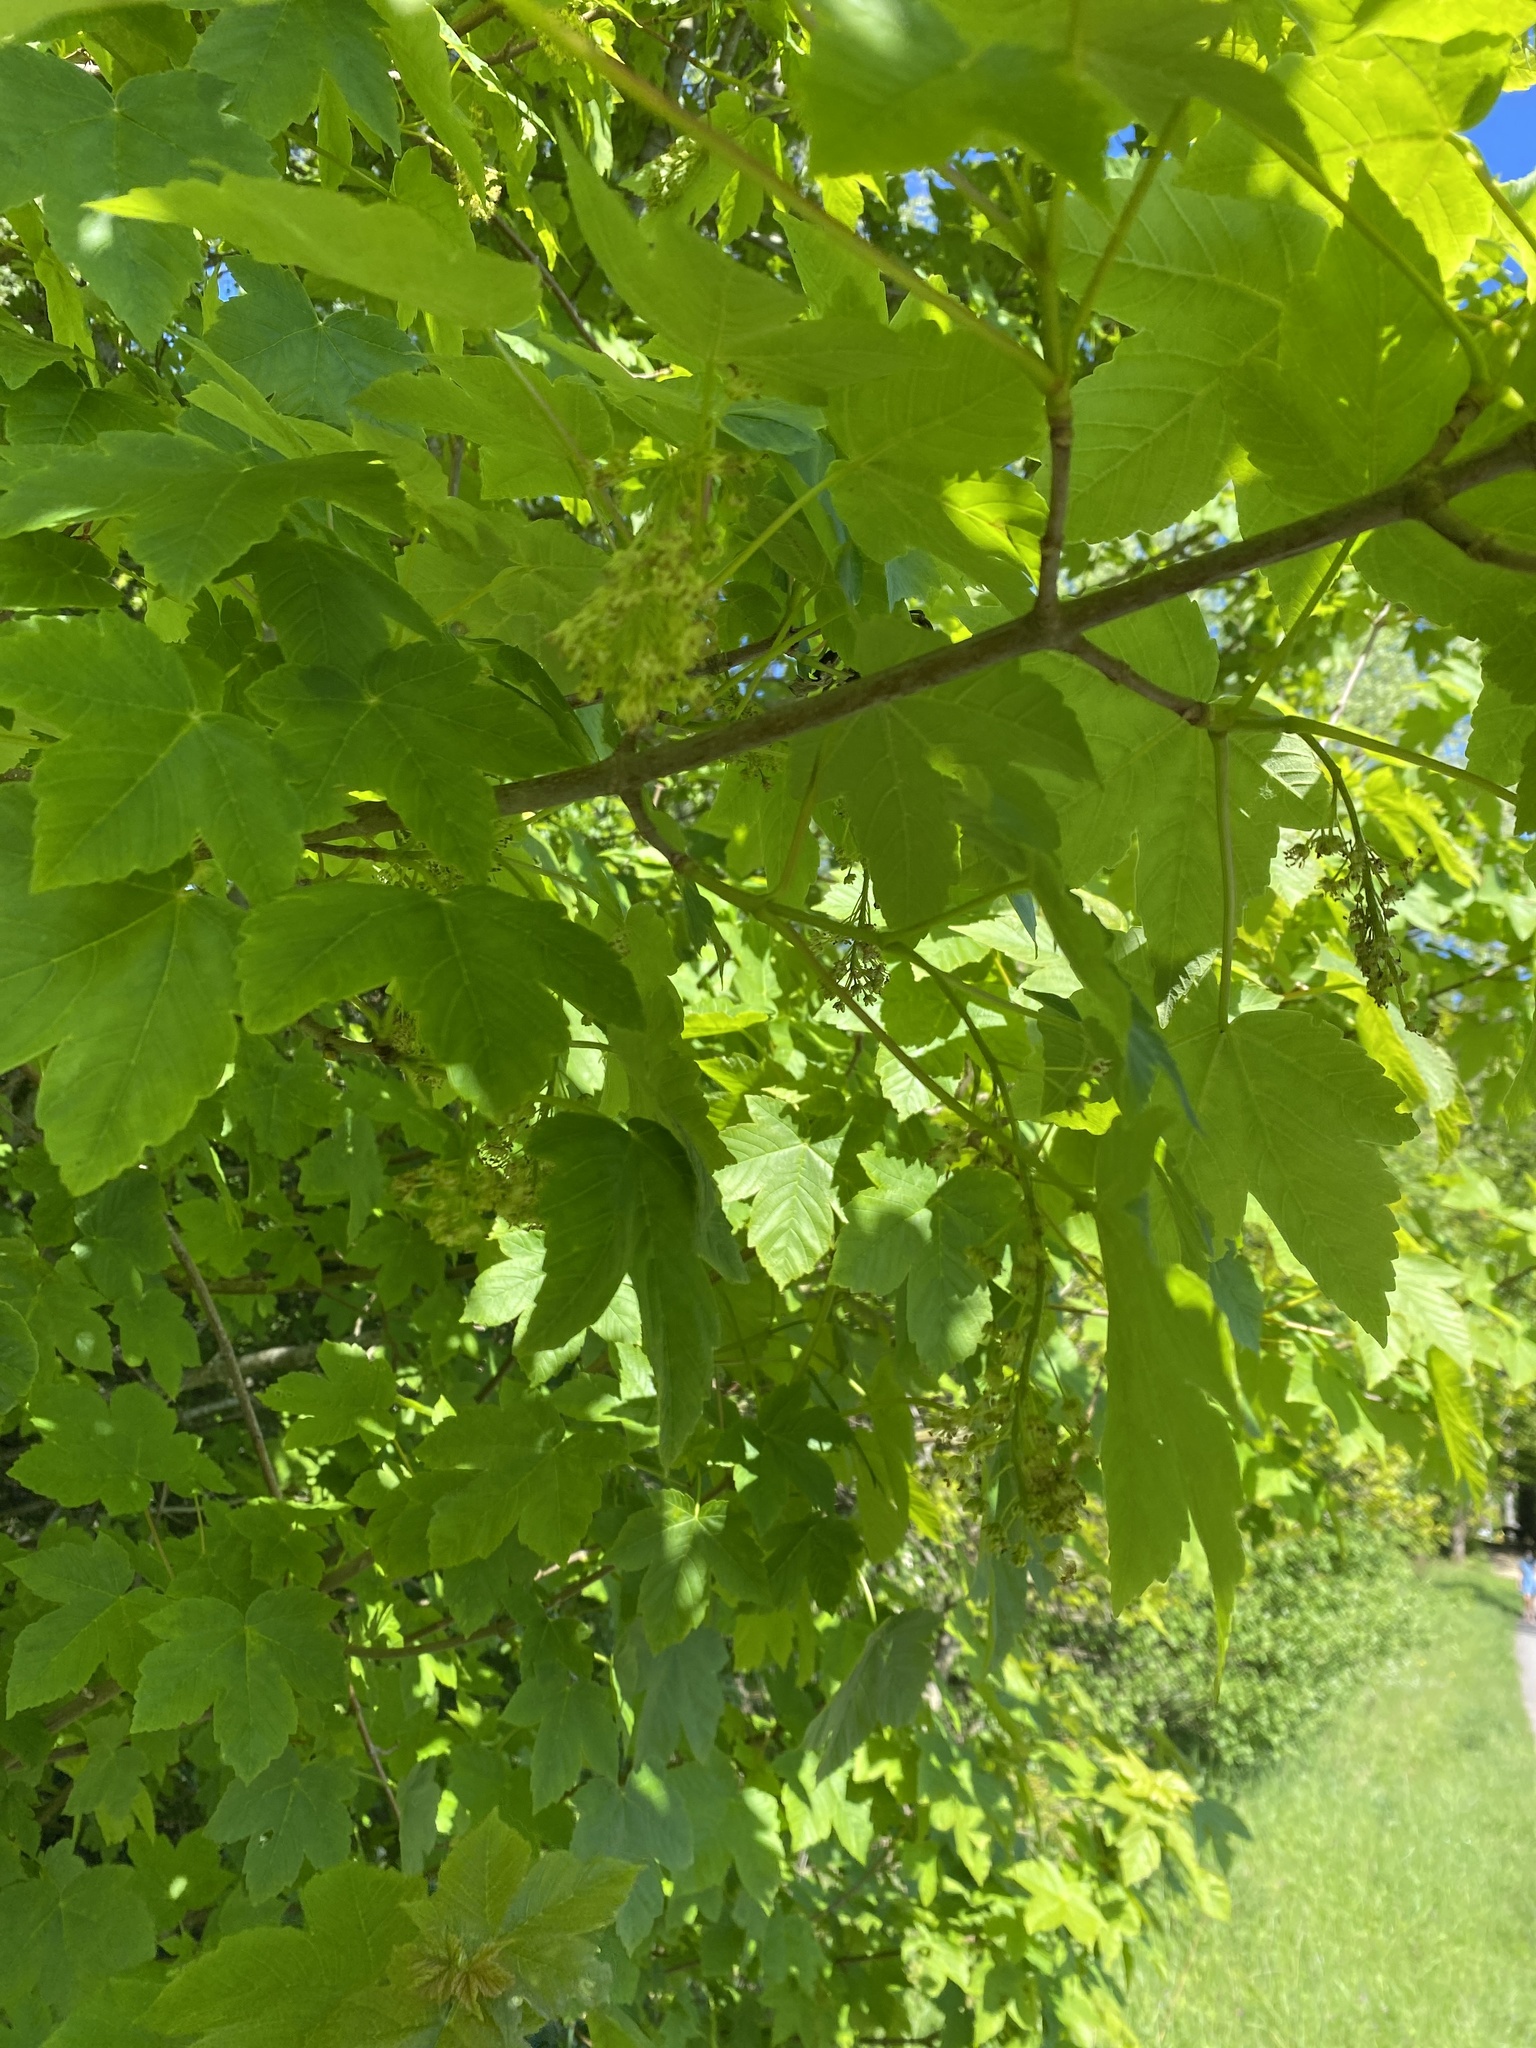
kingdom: Plantae
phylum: Tracheophyta
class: Magnoliopsida
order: Sapindales
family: Sapindaceae
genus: Acer
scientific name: Acer pseudoplatanus
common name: Sycamore
